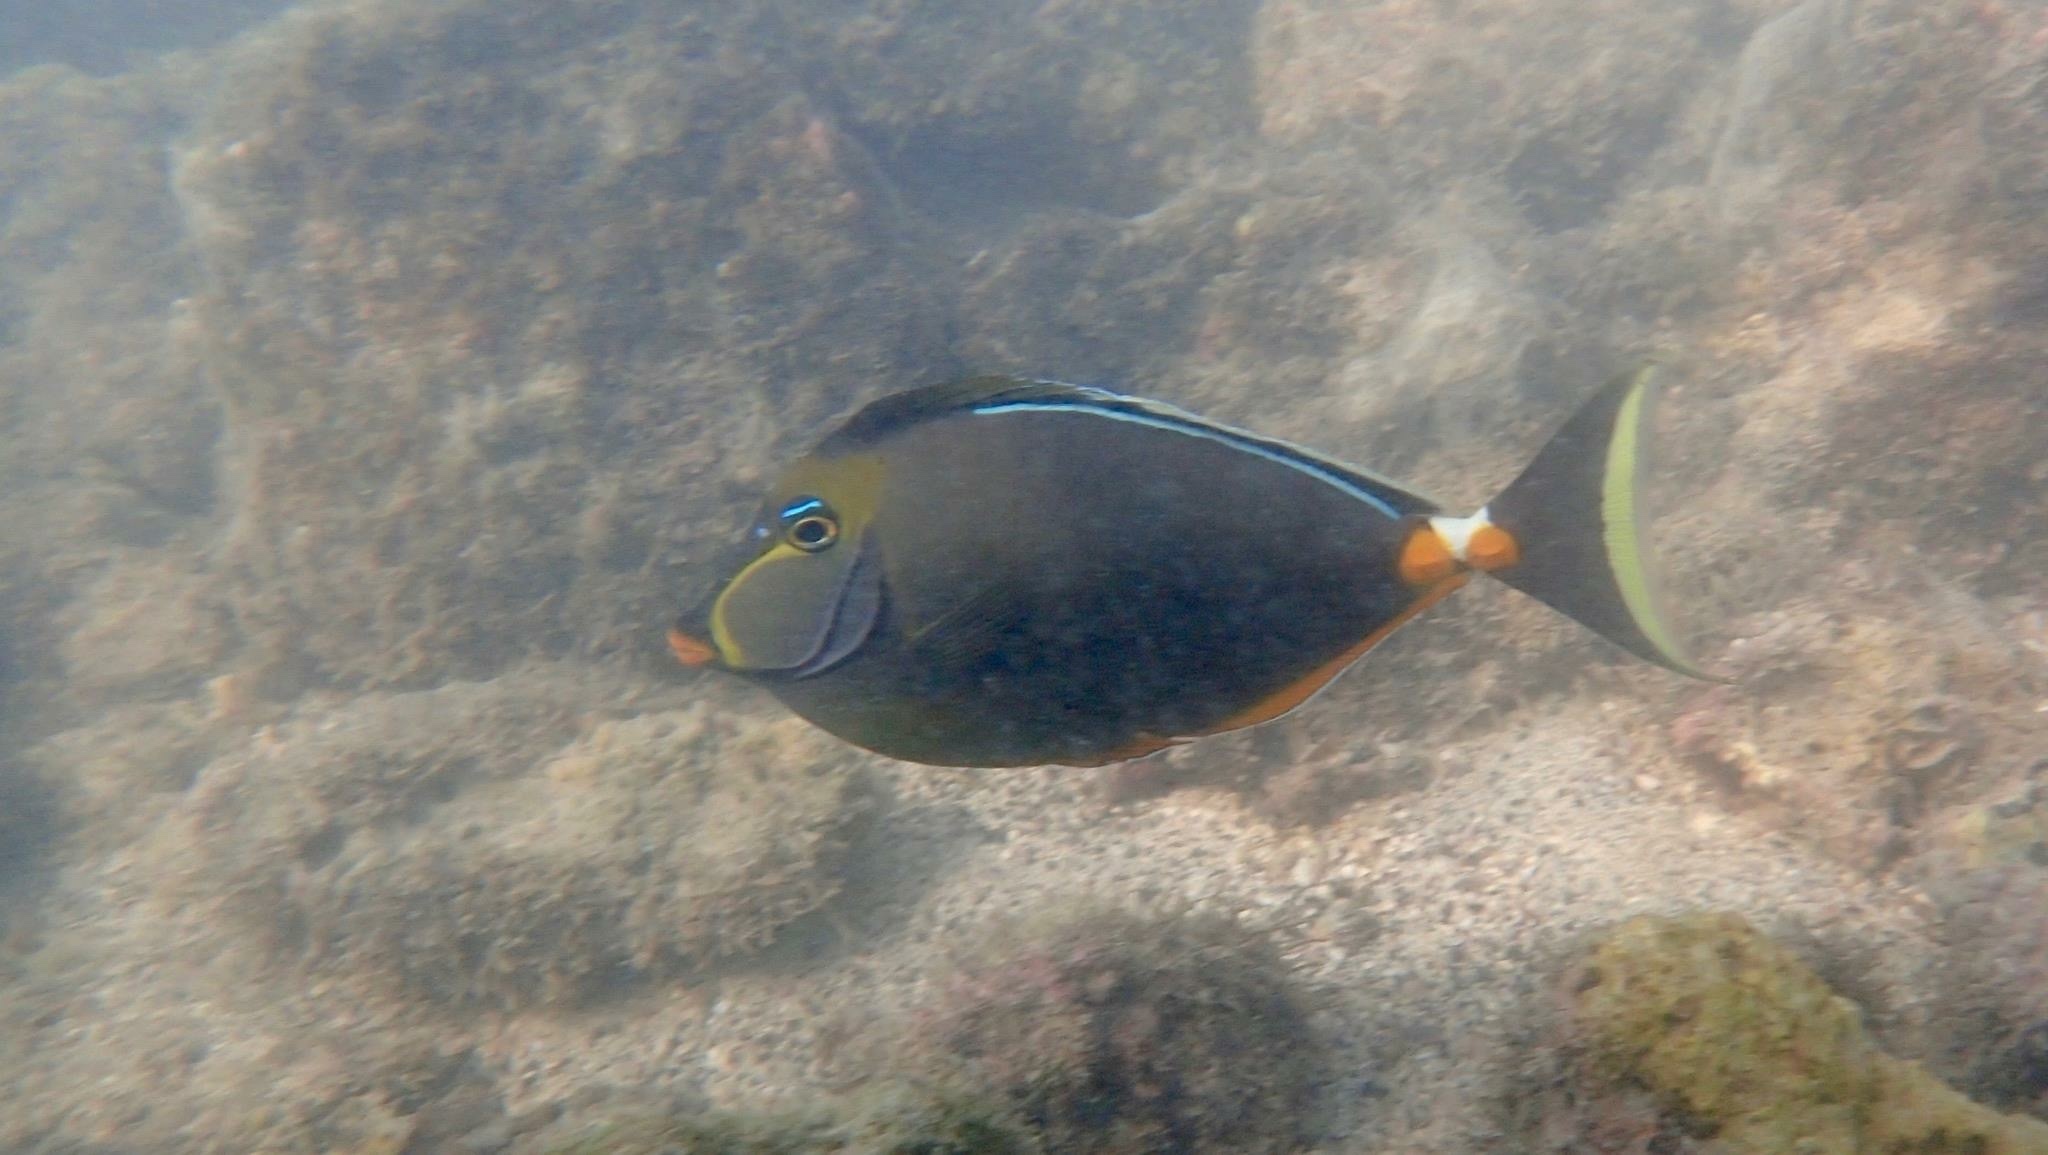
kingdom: Animalia
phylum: Chordata
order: Perciformes
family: Acanthuridae
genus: Naso
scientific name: Naso lituratus
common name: Orangespine unicornfish
